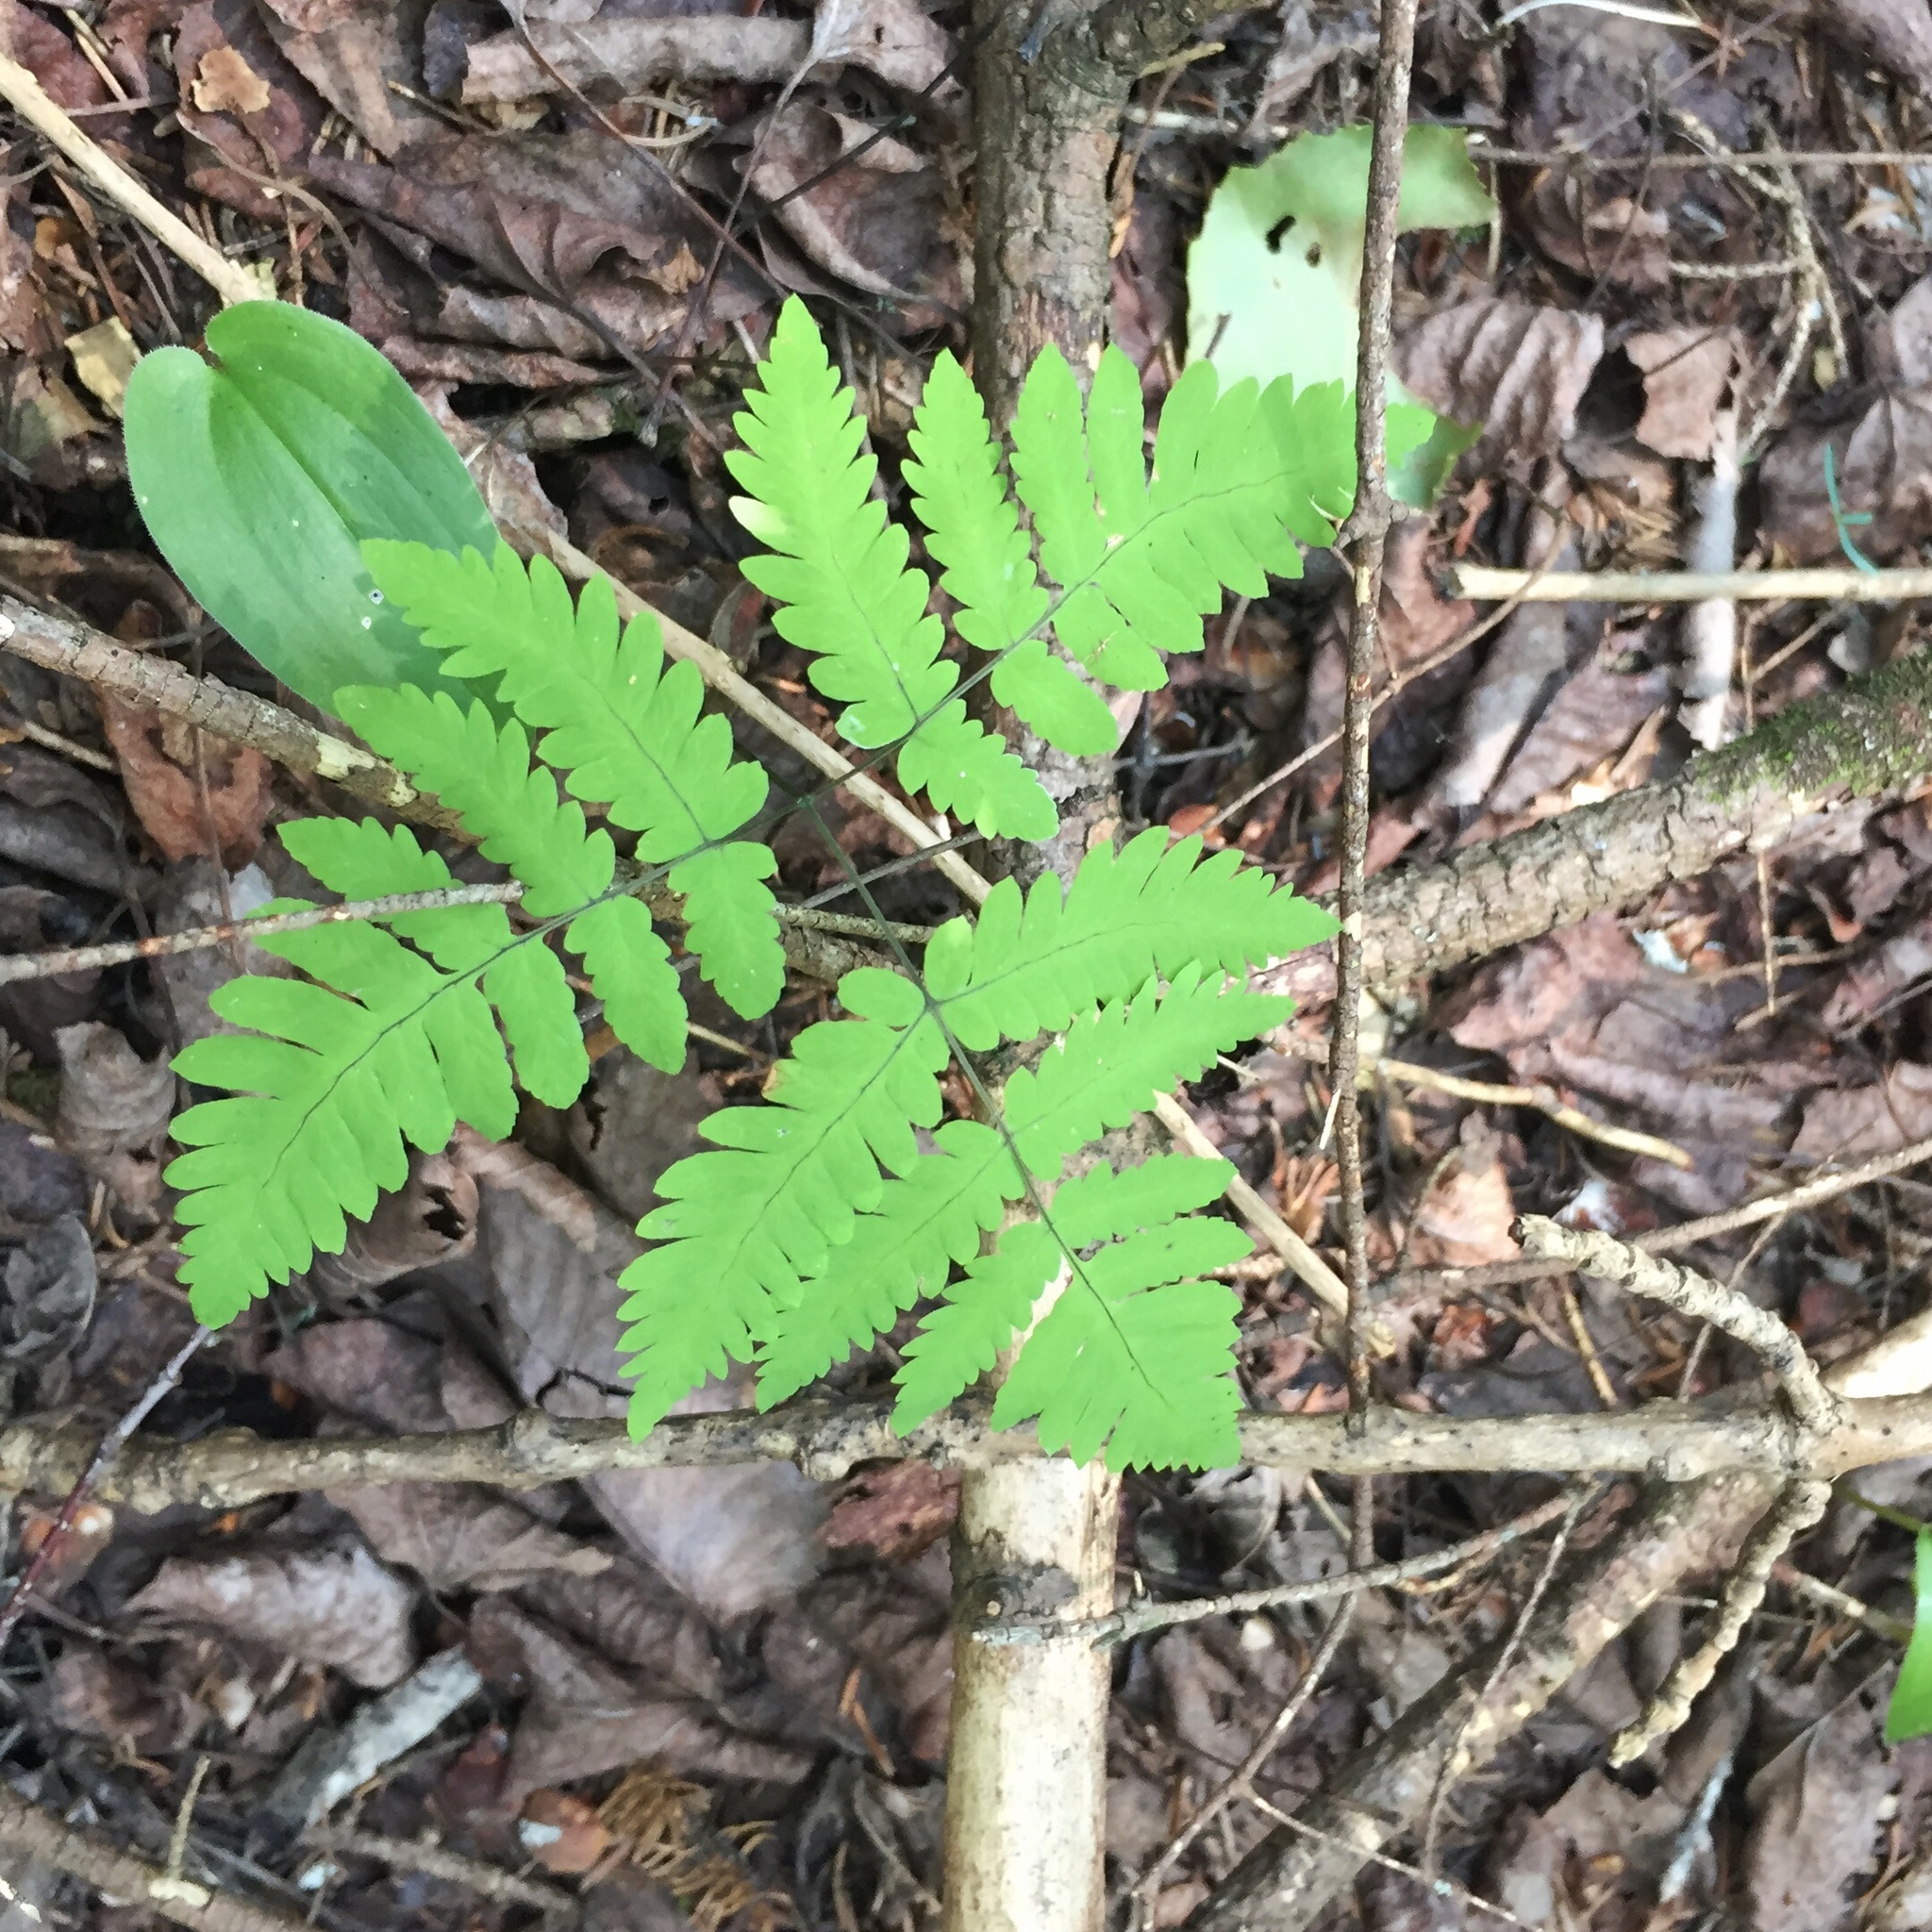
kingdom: Plantae
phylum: Tracheophyta
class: Polypodiopsida
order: Polypodiales
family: Cystopteridaceae
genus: Gymnocarpium
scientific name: Gymnocarpium dryopteris
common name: Oak fern
